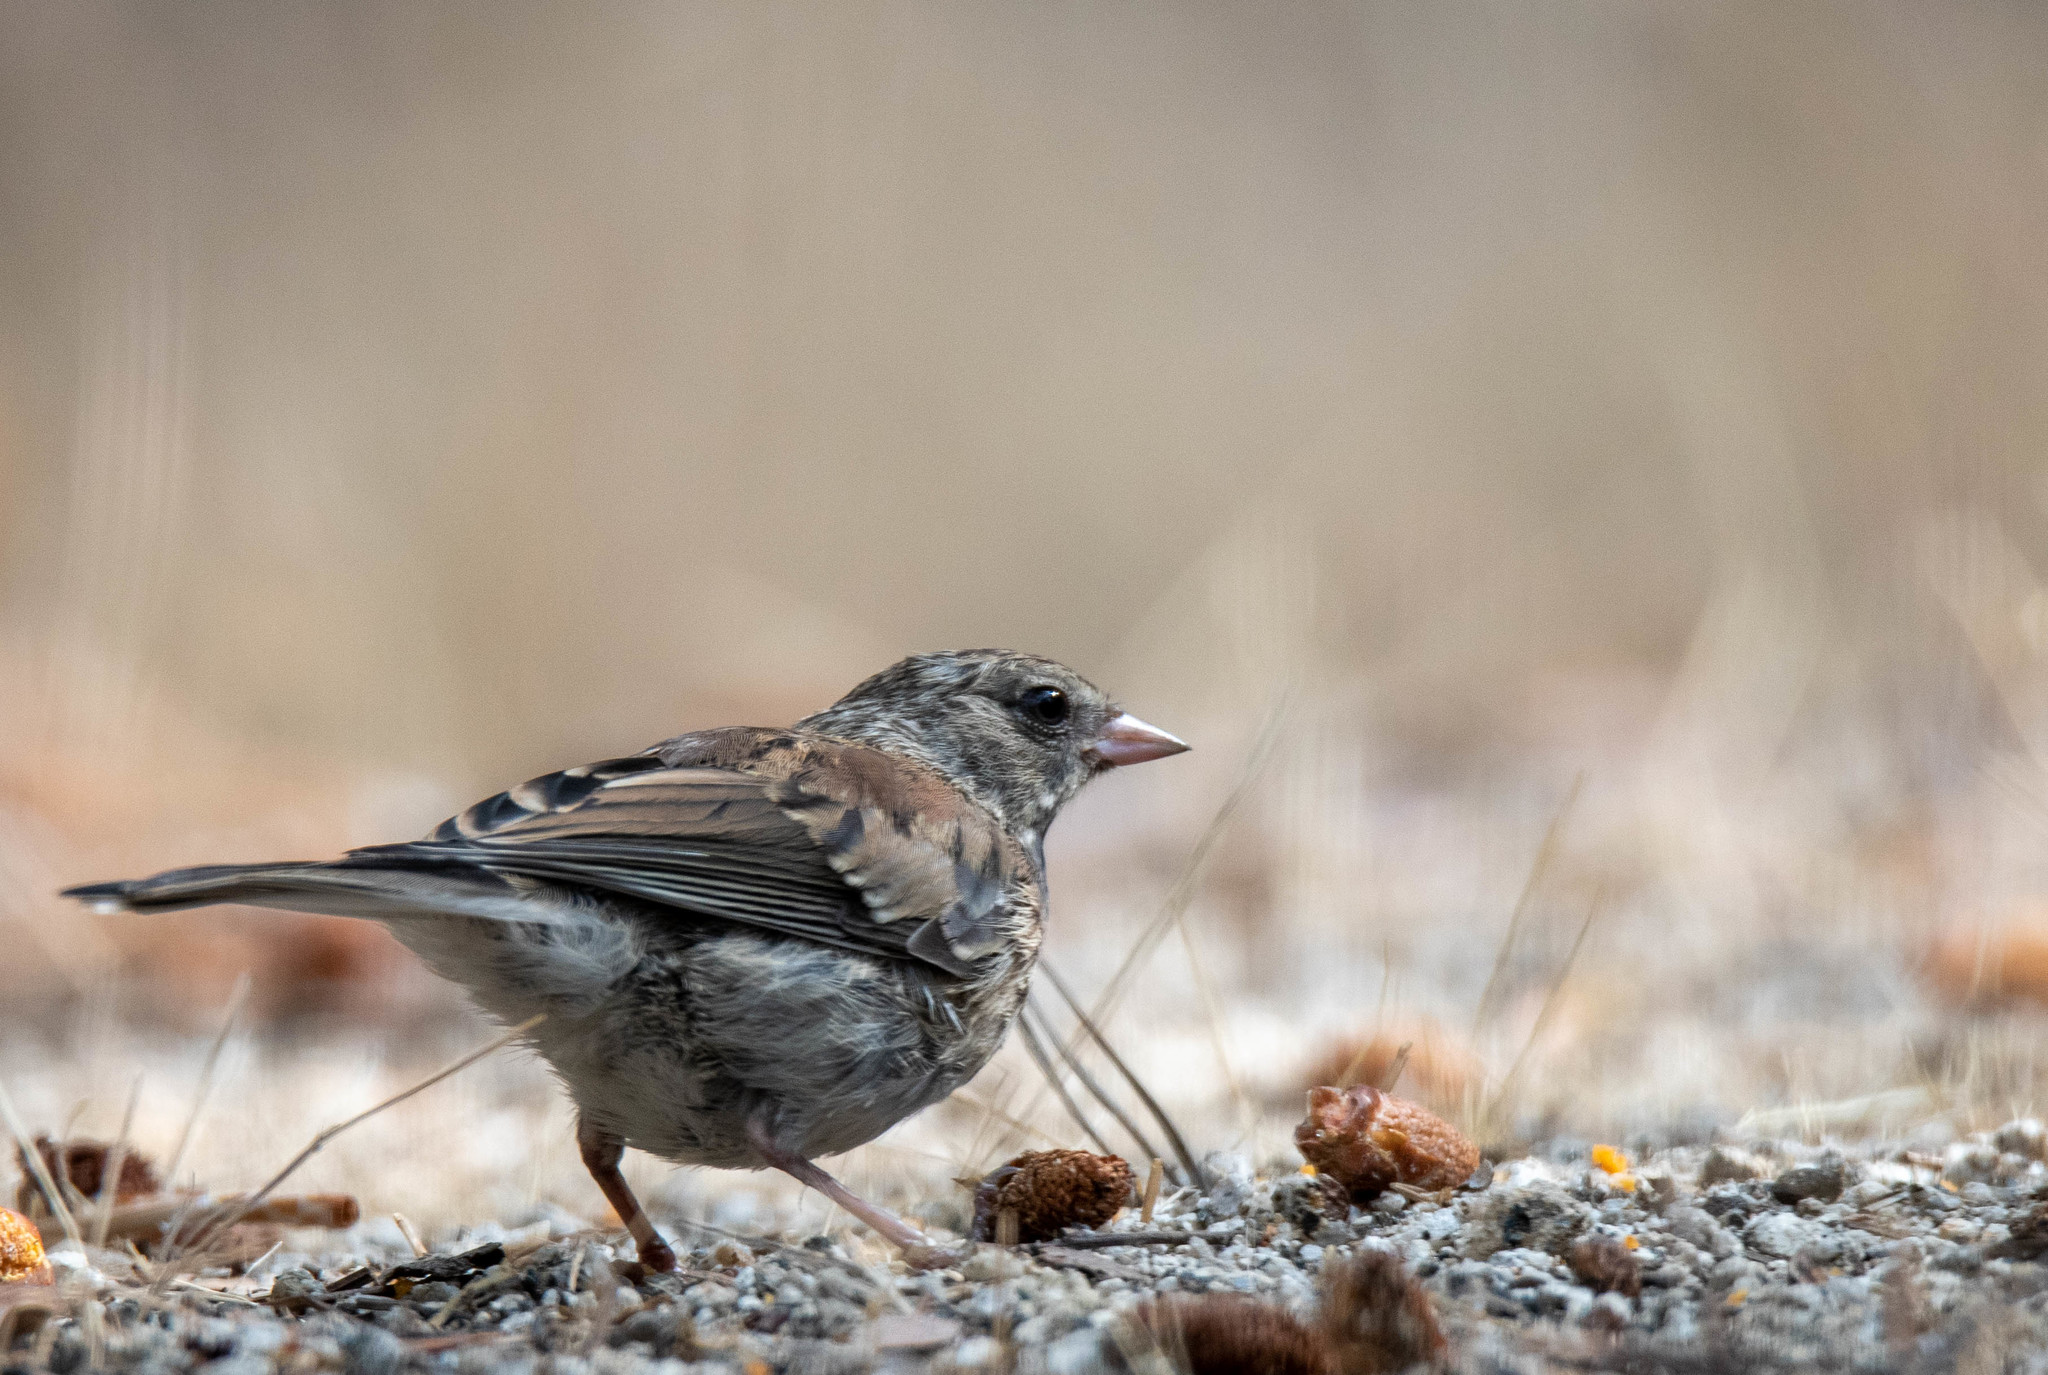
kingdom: Animalia
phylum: Chordata
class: Aves
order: Passeriformes
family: Passerellidae
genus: Junco
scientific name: Junco hyemalis
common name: Dark-eyed junco
